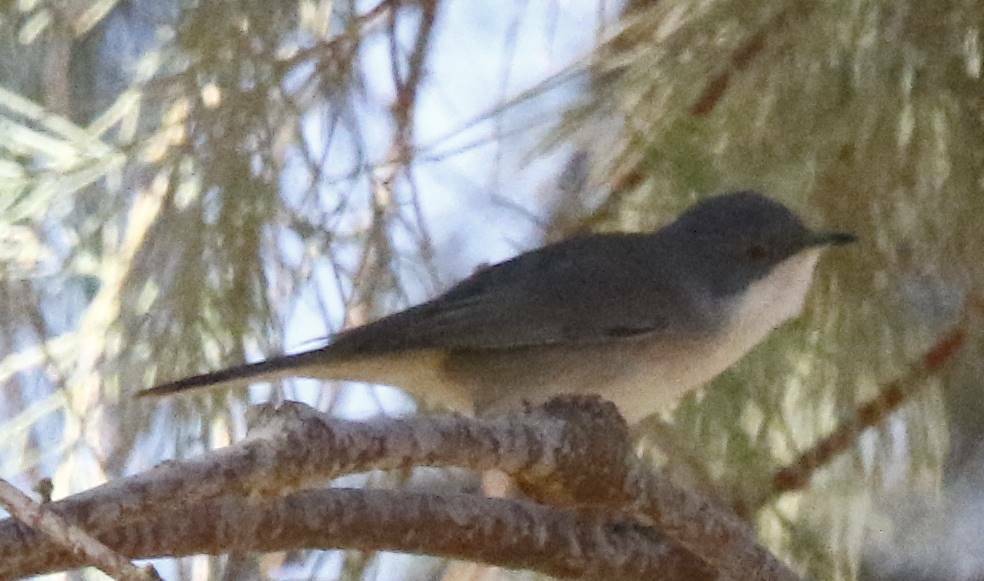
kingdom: Animalia
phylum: Chordata
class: Aves
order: Passeriformes
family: Sylviidae
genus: Curruca
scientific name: Curruca melanocephala
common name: Sardinian warbler
